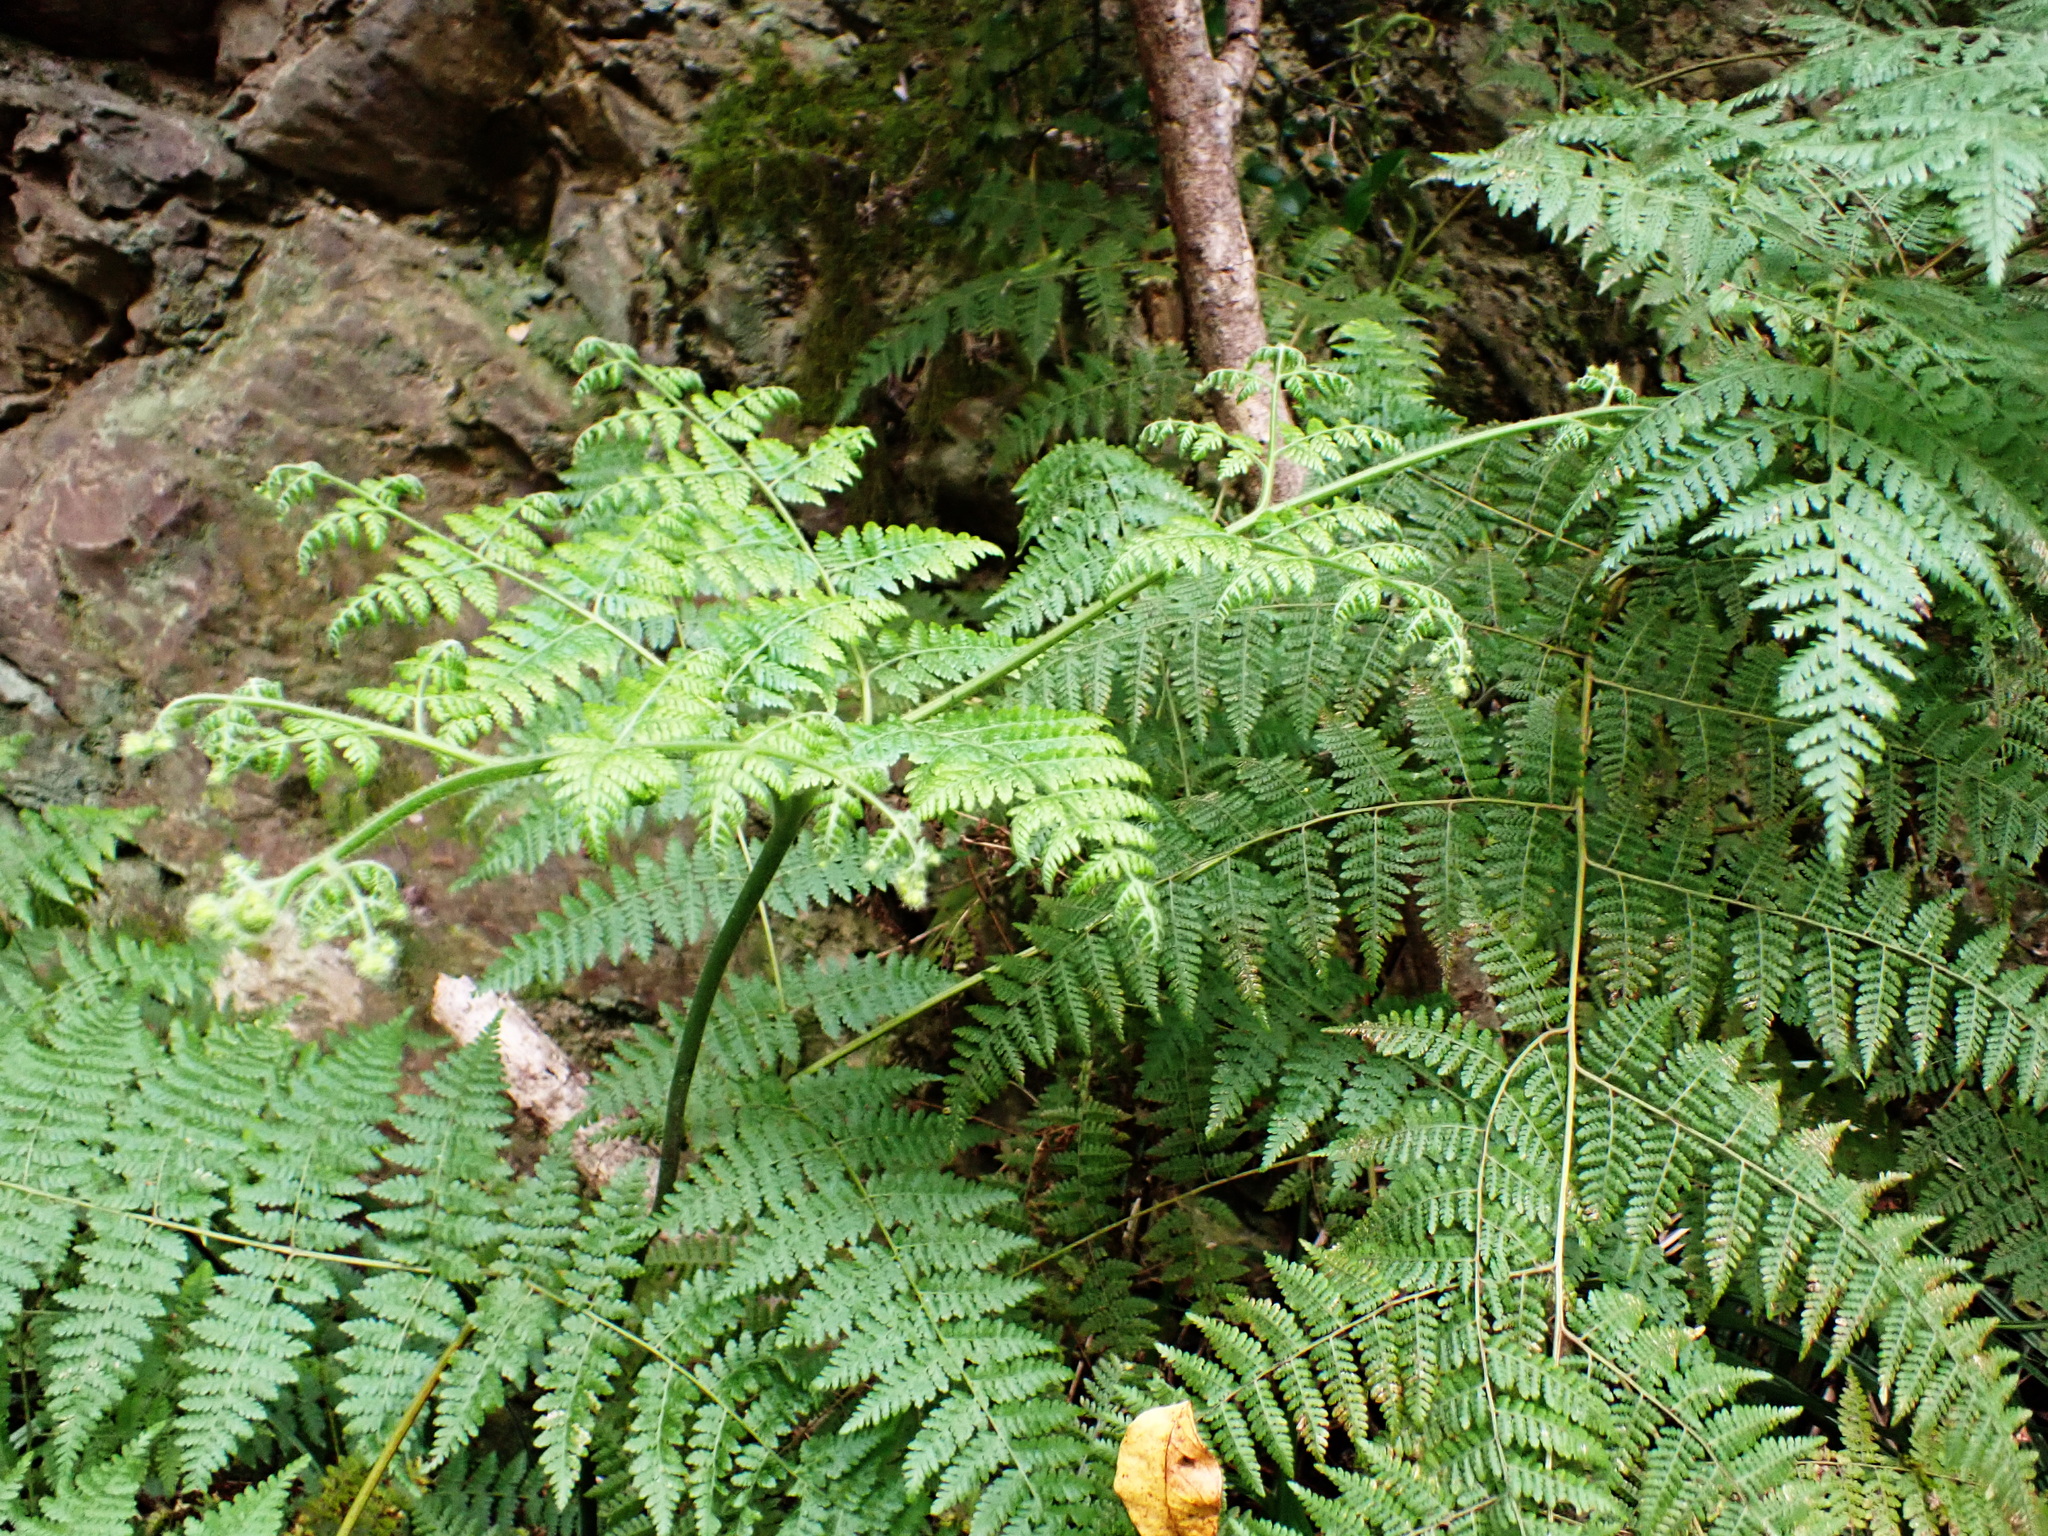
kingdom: Plantae
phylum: Tracheophyta
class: Polypodiopsida
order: Polypodiales
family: Dennstaedtiaceae
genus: Hypolepis
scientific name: Hypolepis sparsisora
